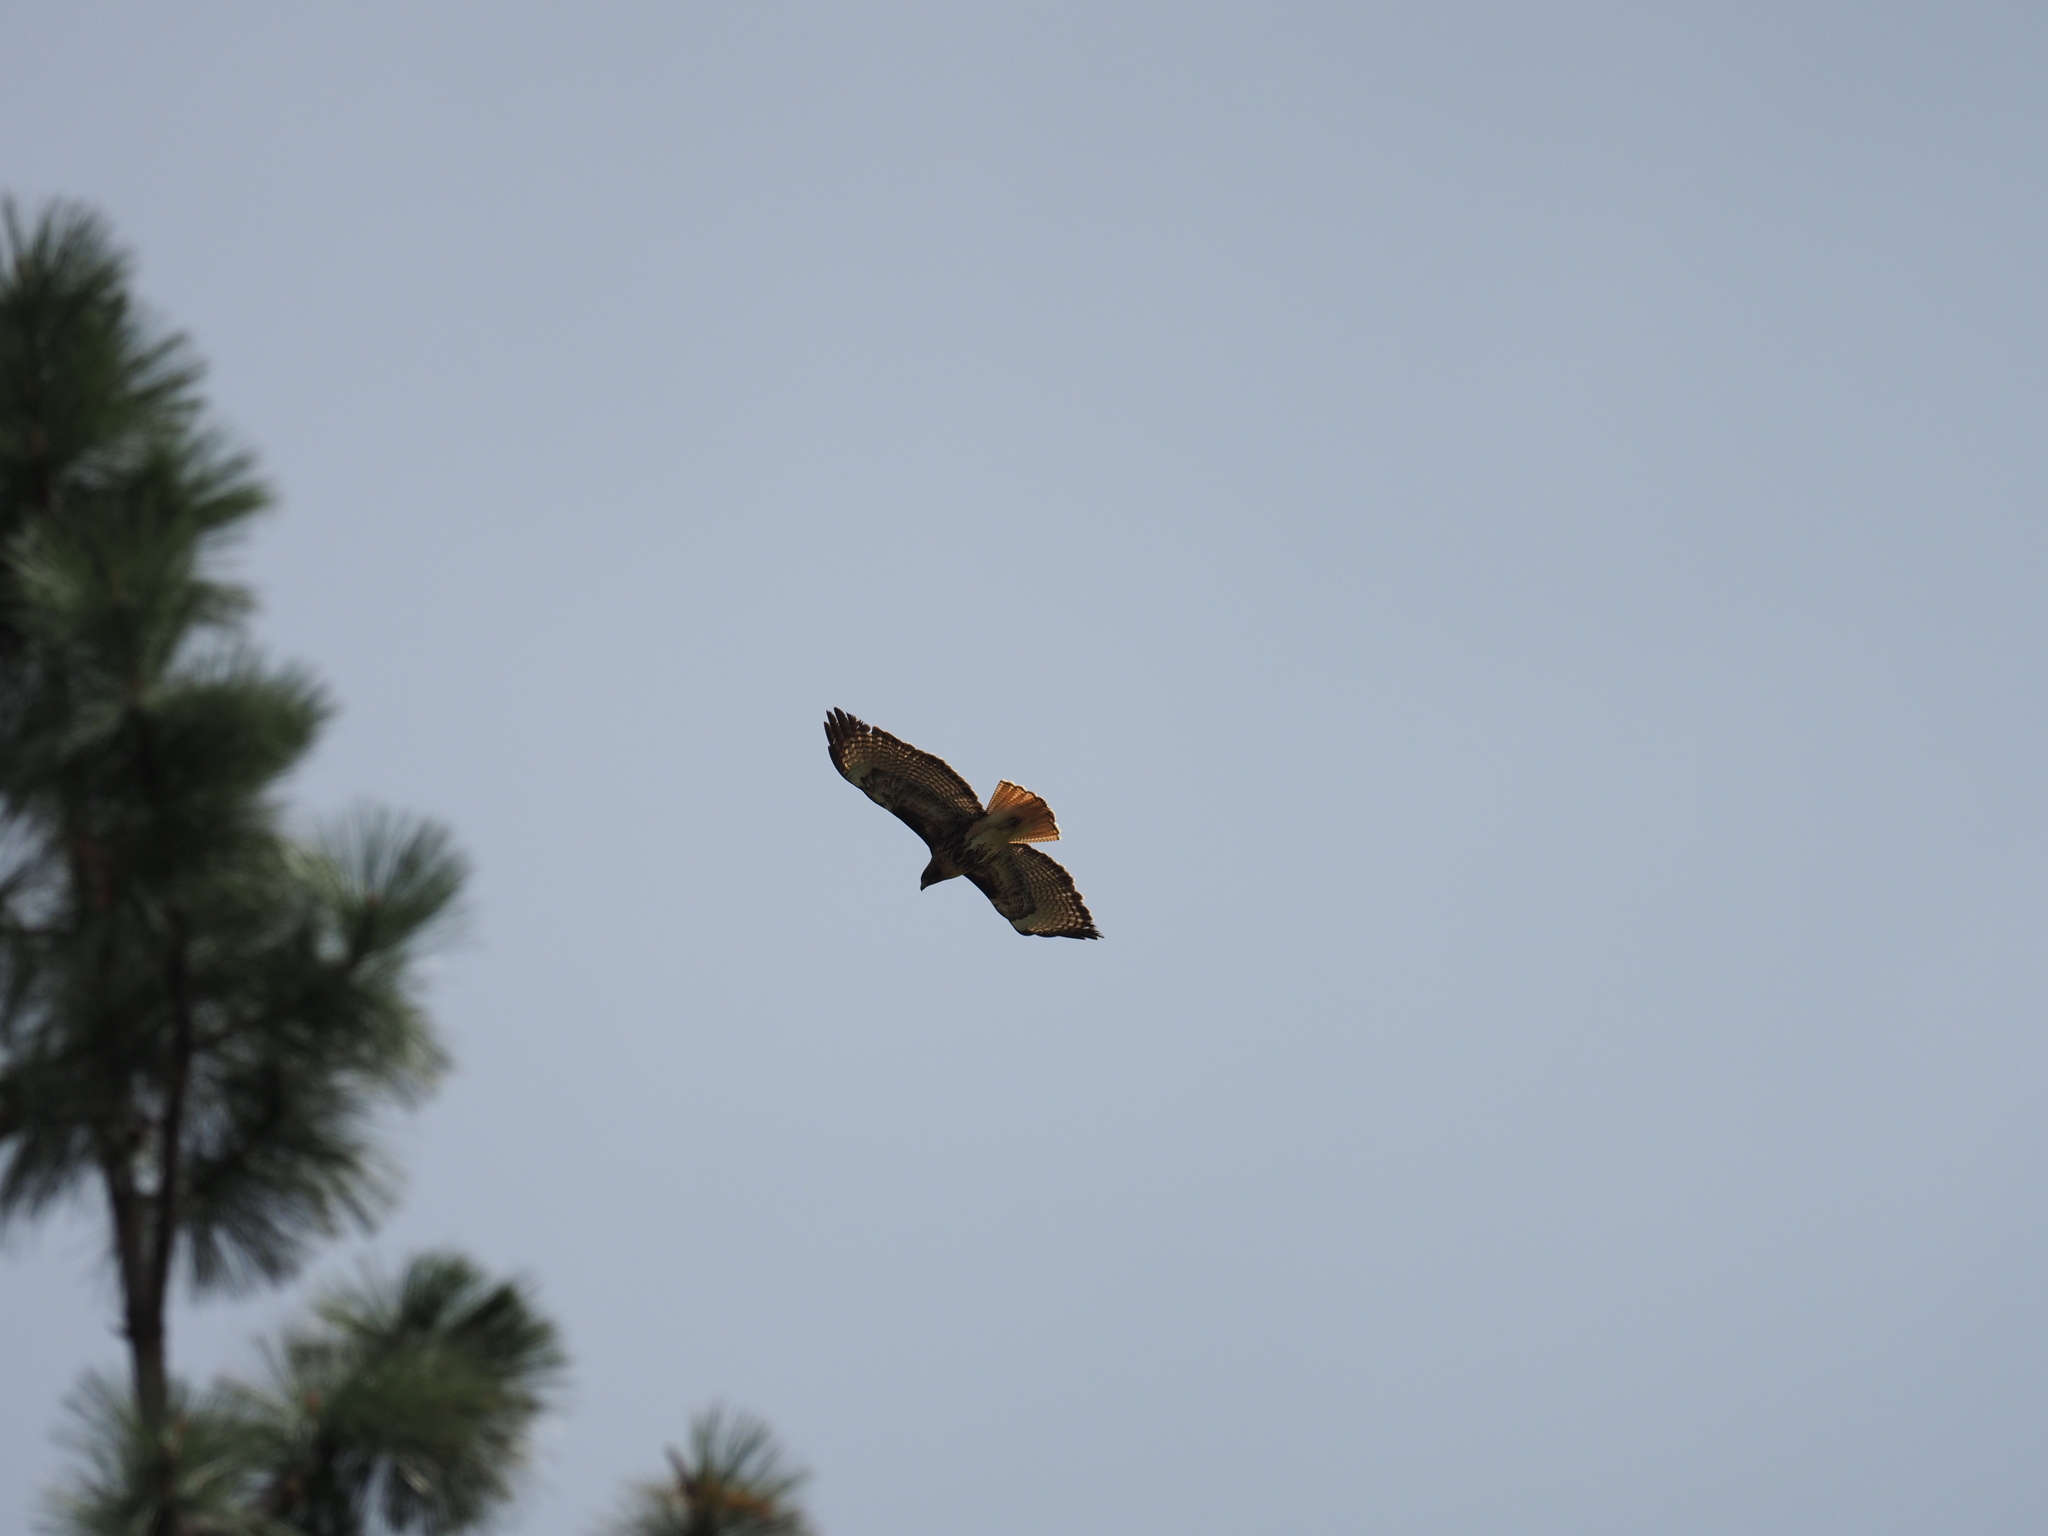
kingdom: Animalia
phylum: Chordata
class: Aves
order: Accipitriformes
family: Accipitridae
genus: Buteo
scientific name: Buteo jamaicensis
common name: Red-tailed hawk
